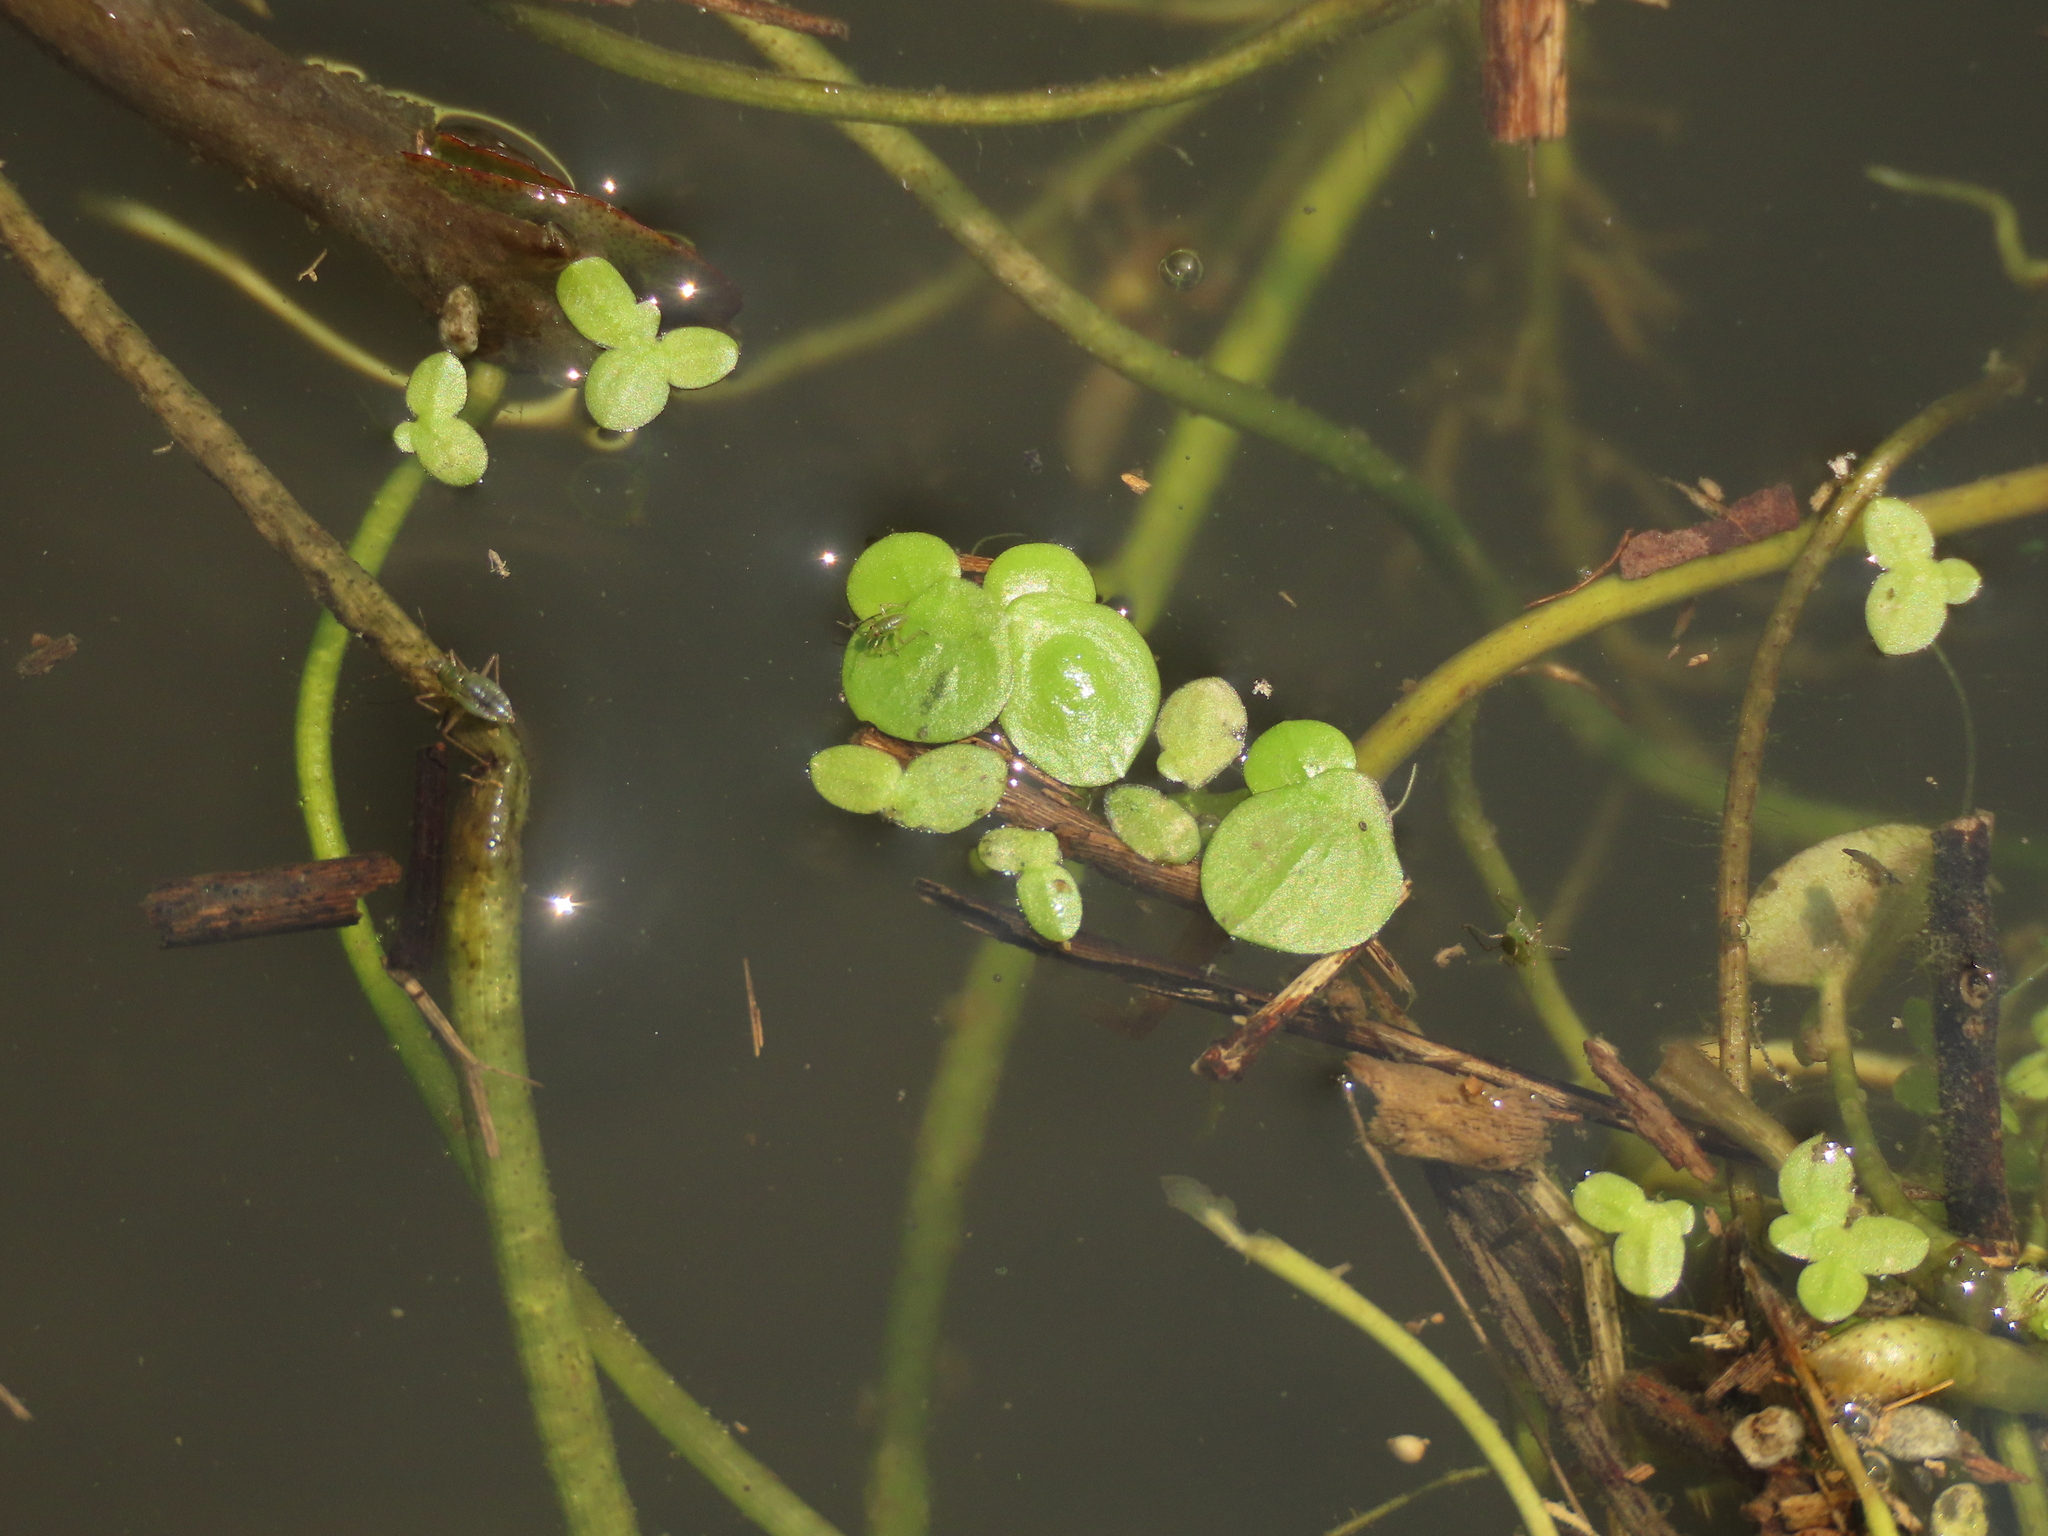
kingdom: Plantae
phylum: Tracheophyta
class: Liliopsida
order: Alismatales
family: Araceae
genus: Spirodela
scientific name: Spirodela polyrhiza
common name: Great duckweed
